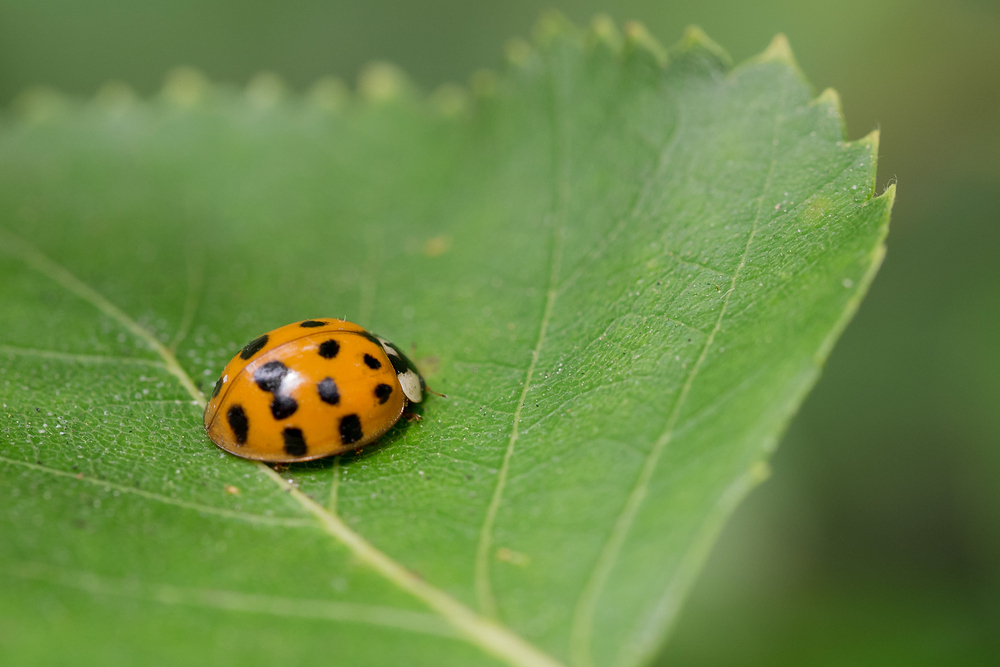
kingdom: Animalia
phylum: Arthropoda
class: Insecta
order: Coleoptera
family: Coccinellidae
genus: Harmonia
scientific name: Harmonia axyridis
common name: Harlequin ladybird
